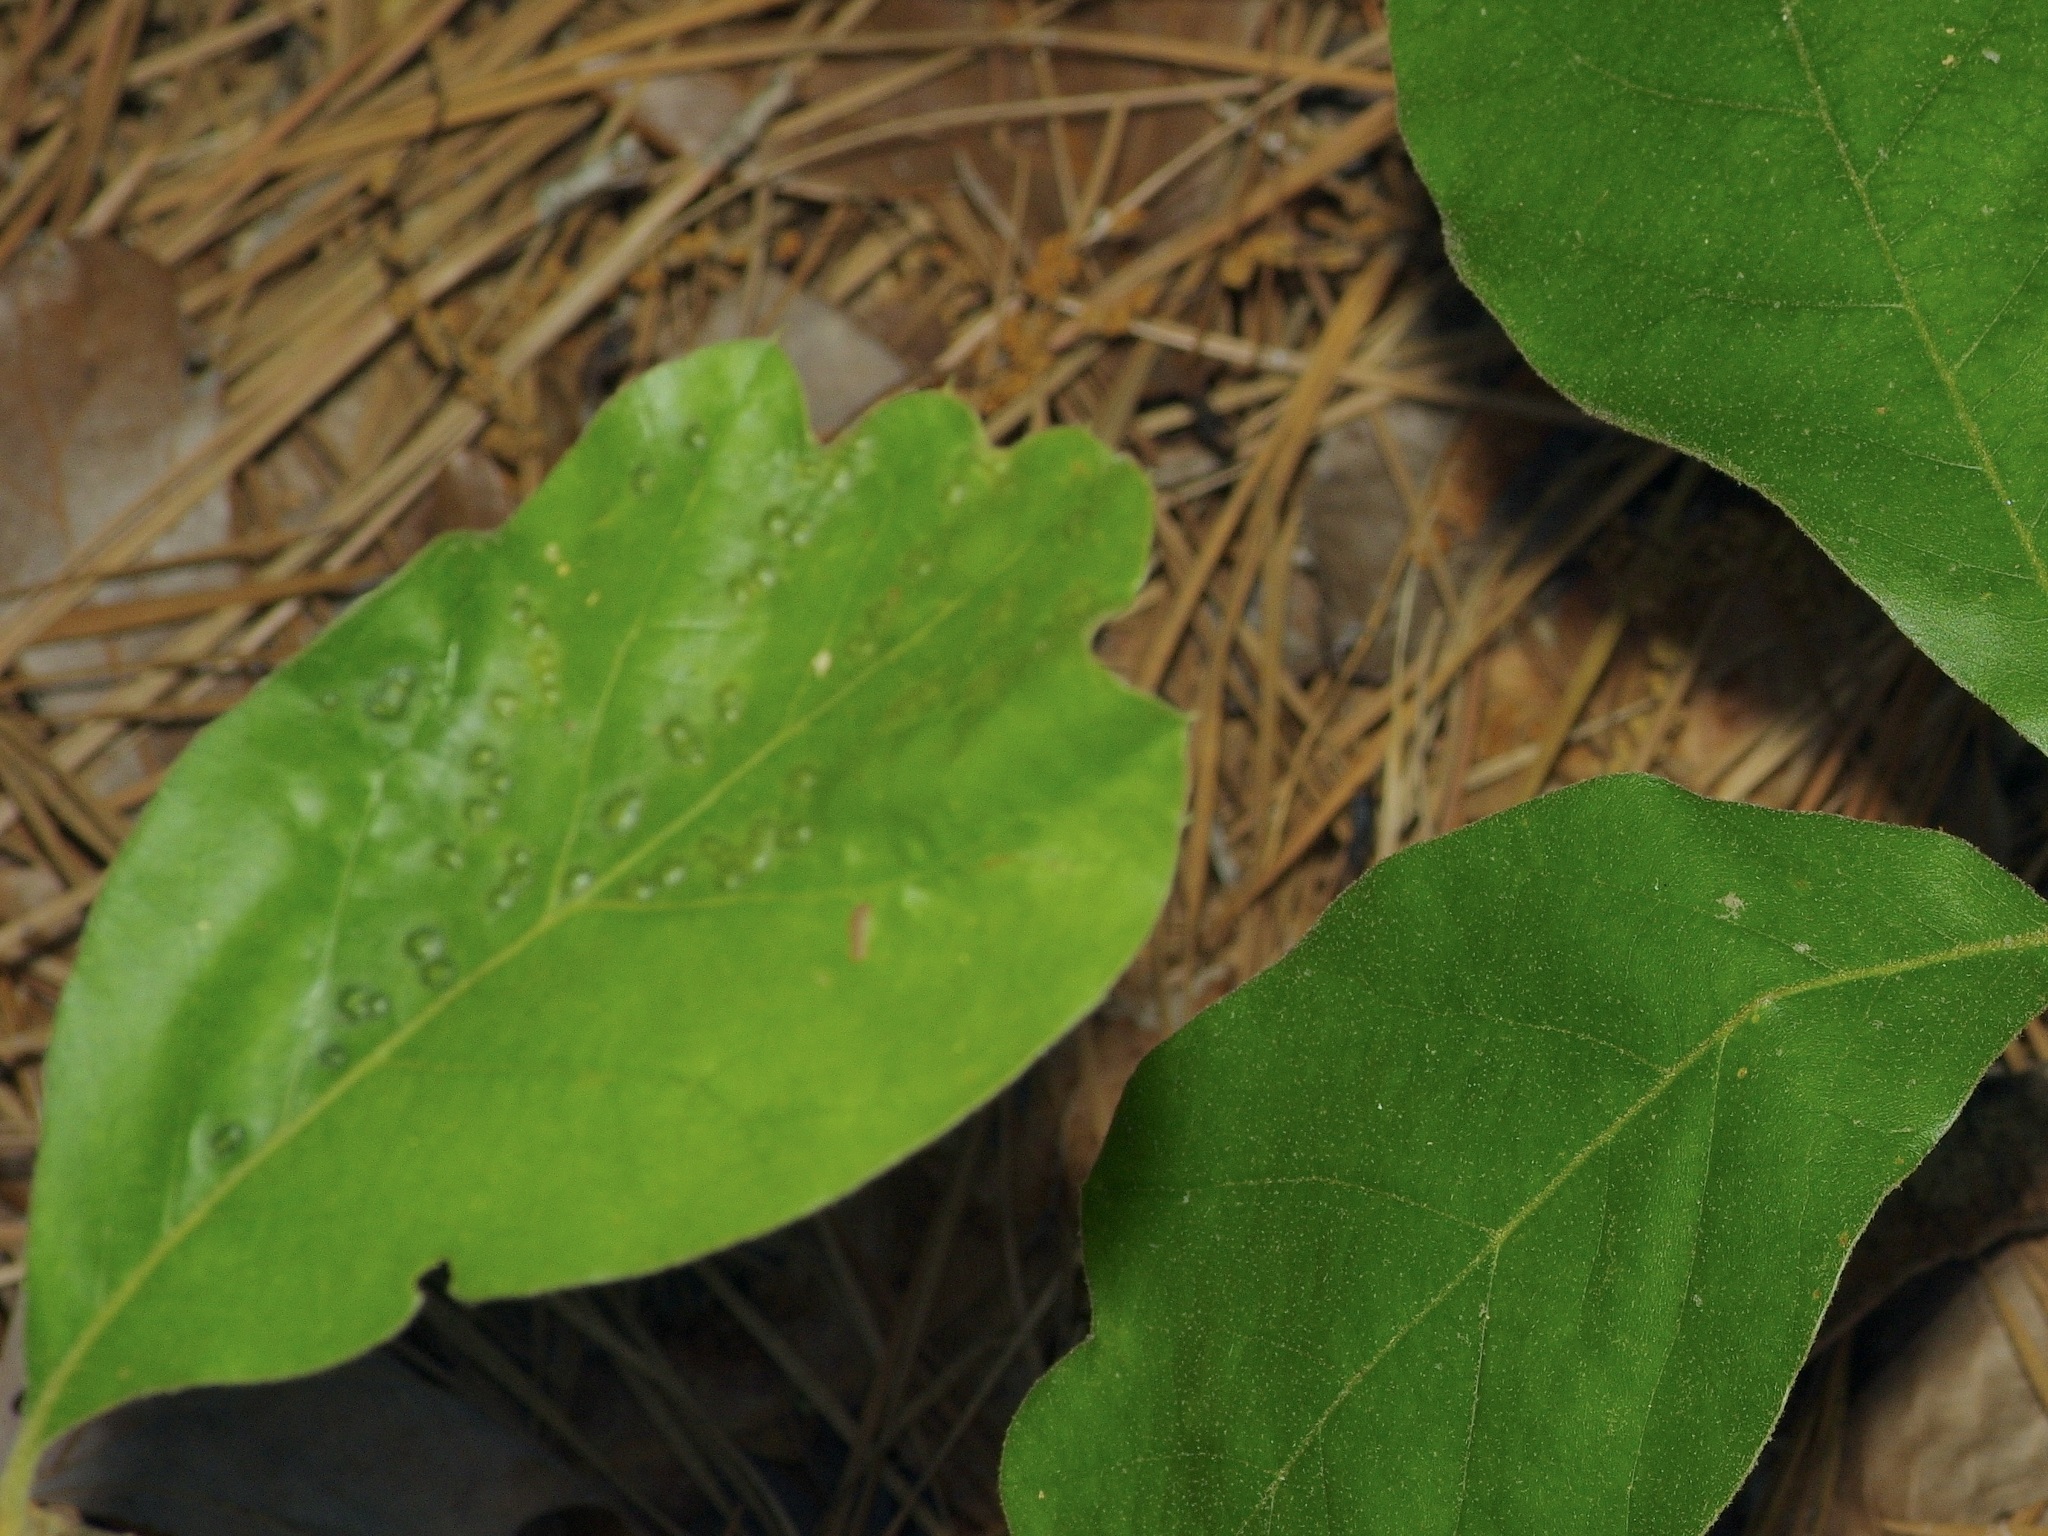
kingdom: Animalia
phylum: Arthropoda
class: Insecta
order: Hymenoptera
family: Cynipidae
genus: Callirhytis
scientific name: Callirhytis
